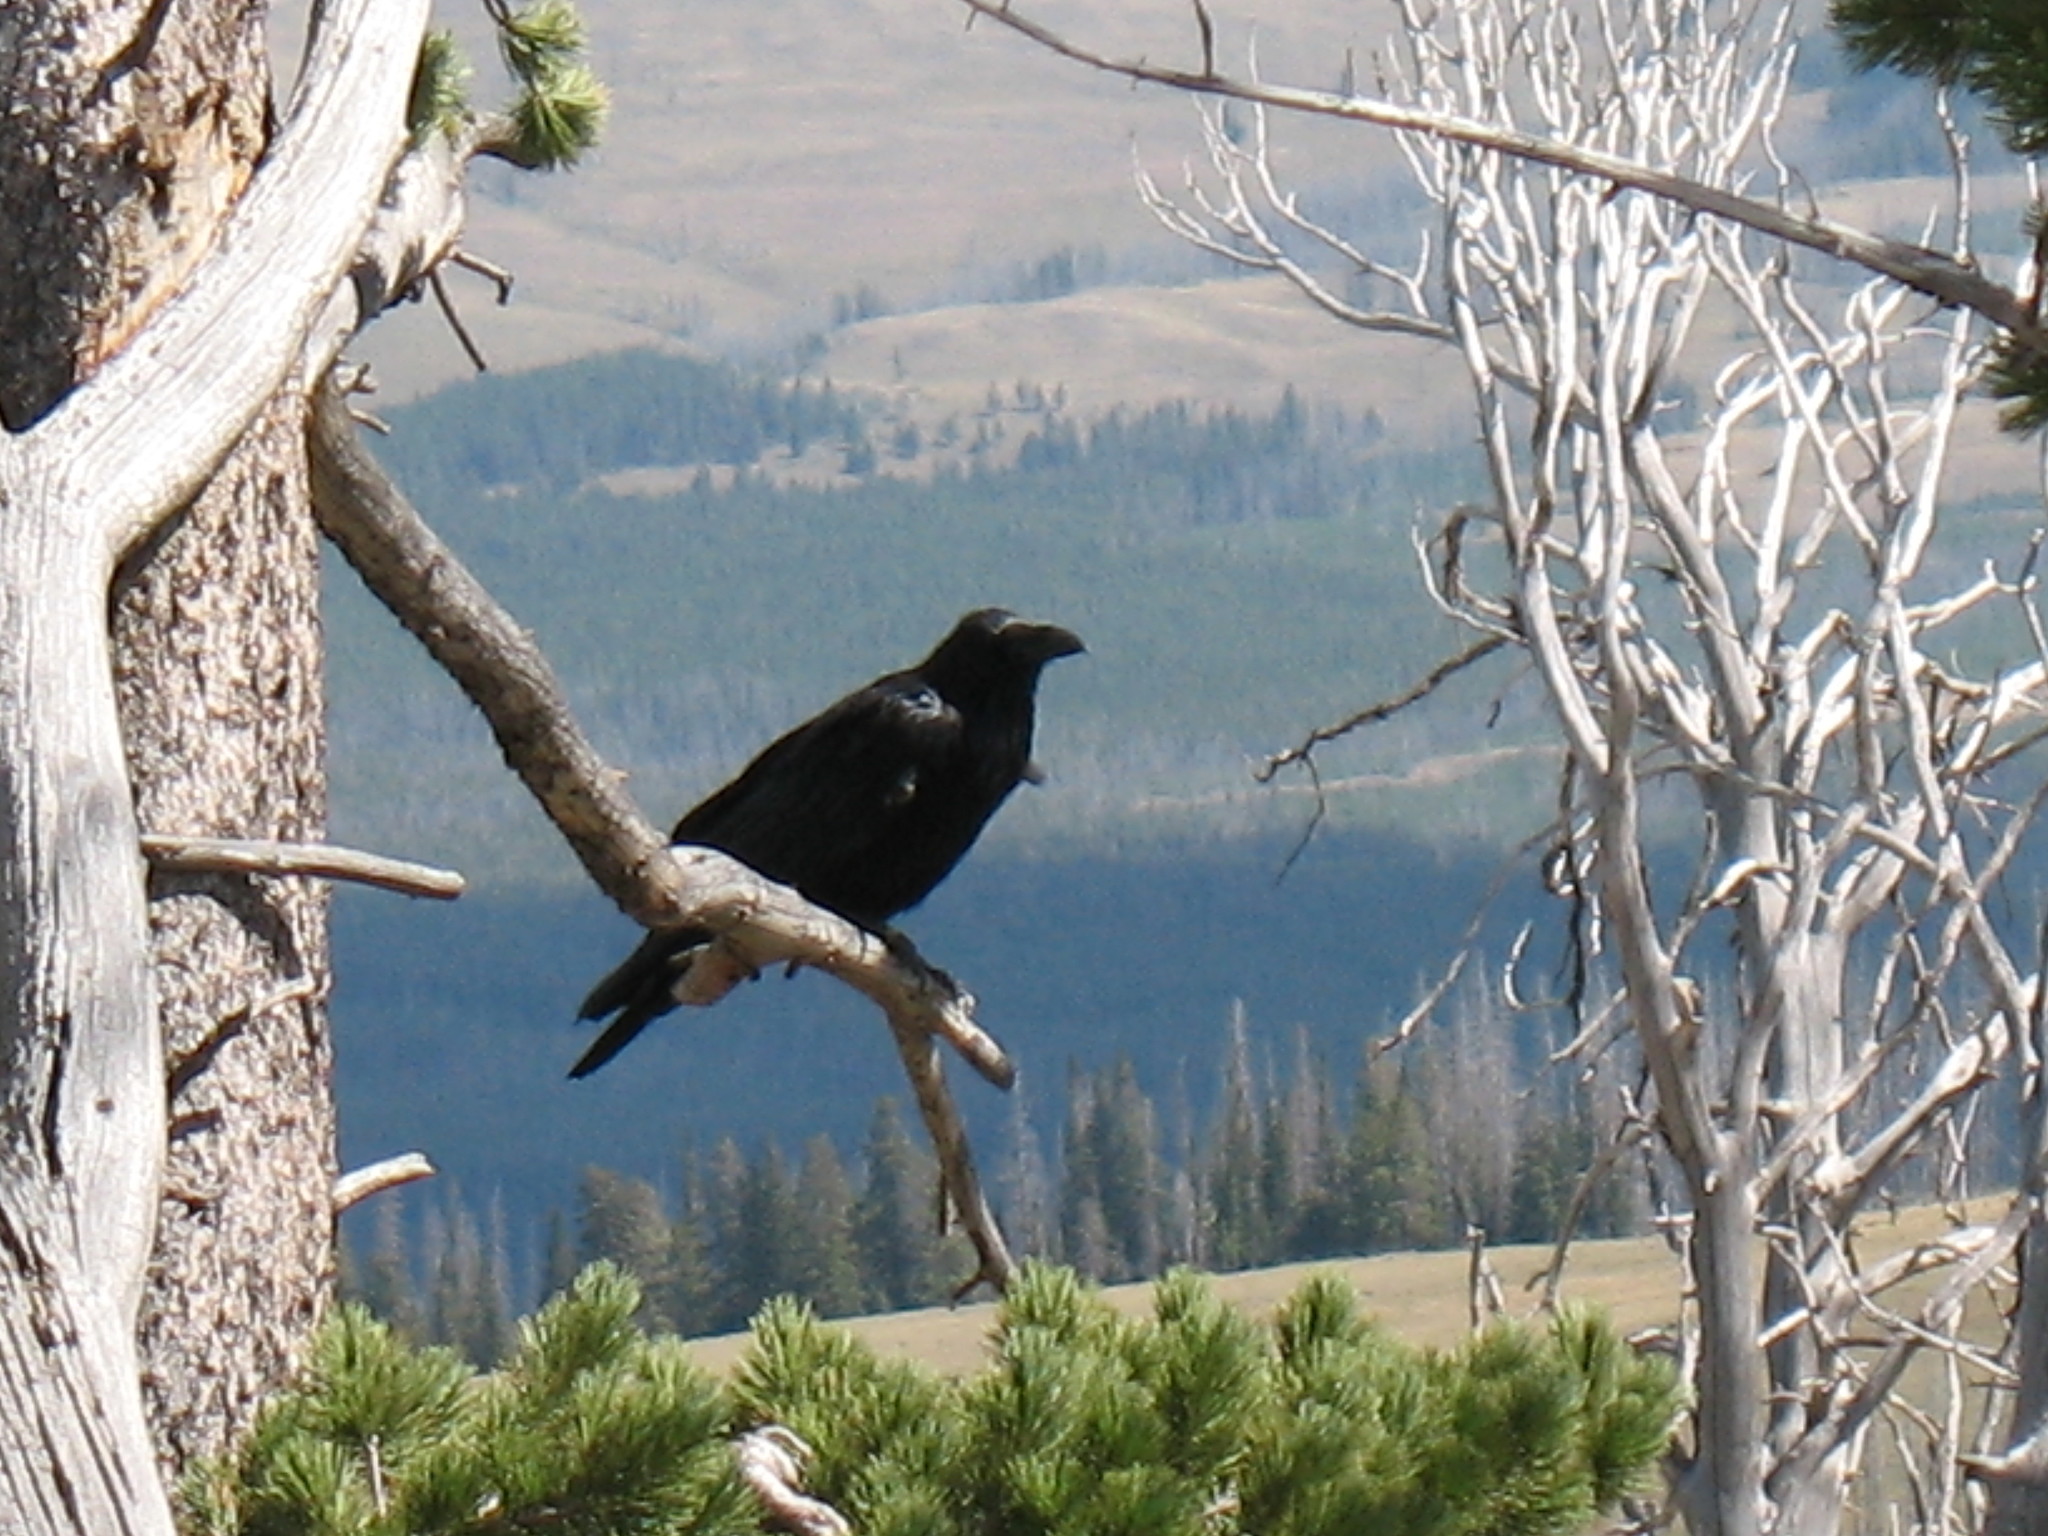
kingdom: Animalia
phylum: Chordata
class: Aves
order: Passeriformes
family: Corvidae
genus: Corvus
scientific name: Corvus corax
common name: Common raven
